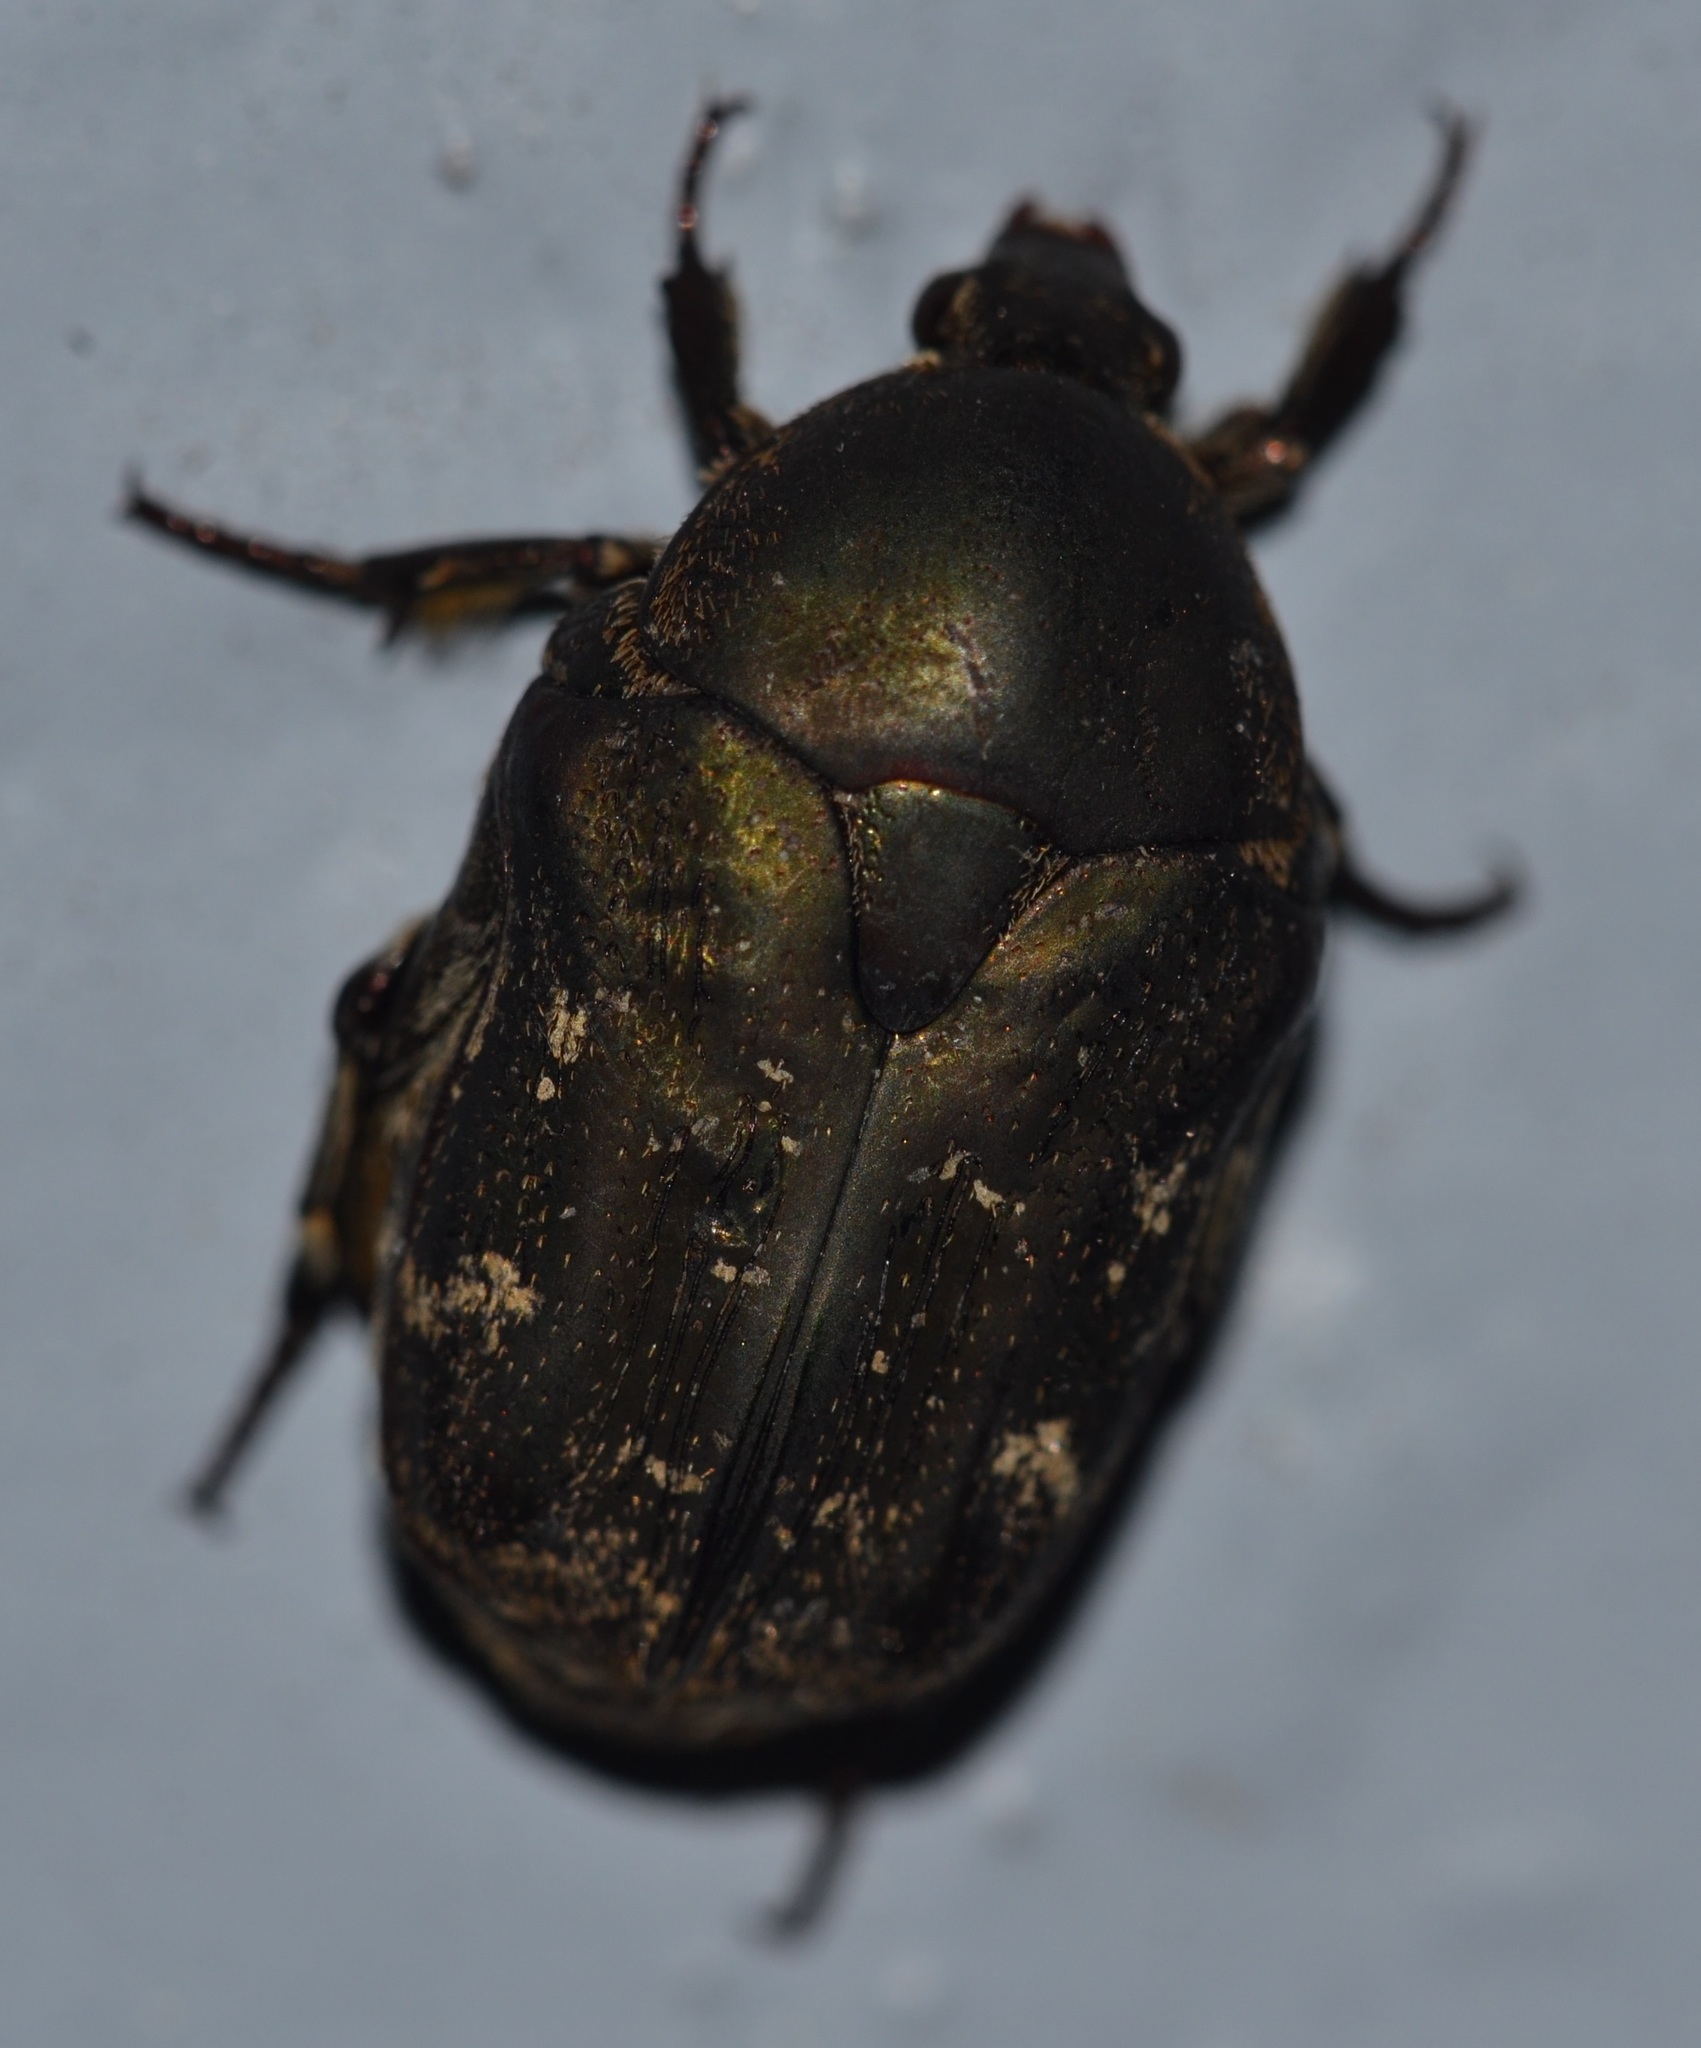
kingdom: Animalia
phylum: Arthropoda
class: Insecta
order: Coleoptera
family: Scarabaeidae
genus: Protaetia
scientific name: Protaetia fusca
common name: Mango flower beetle
